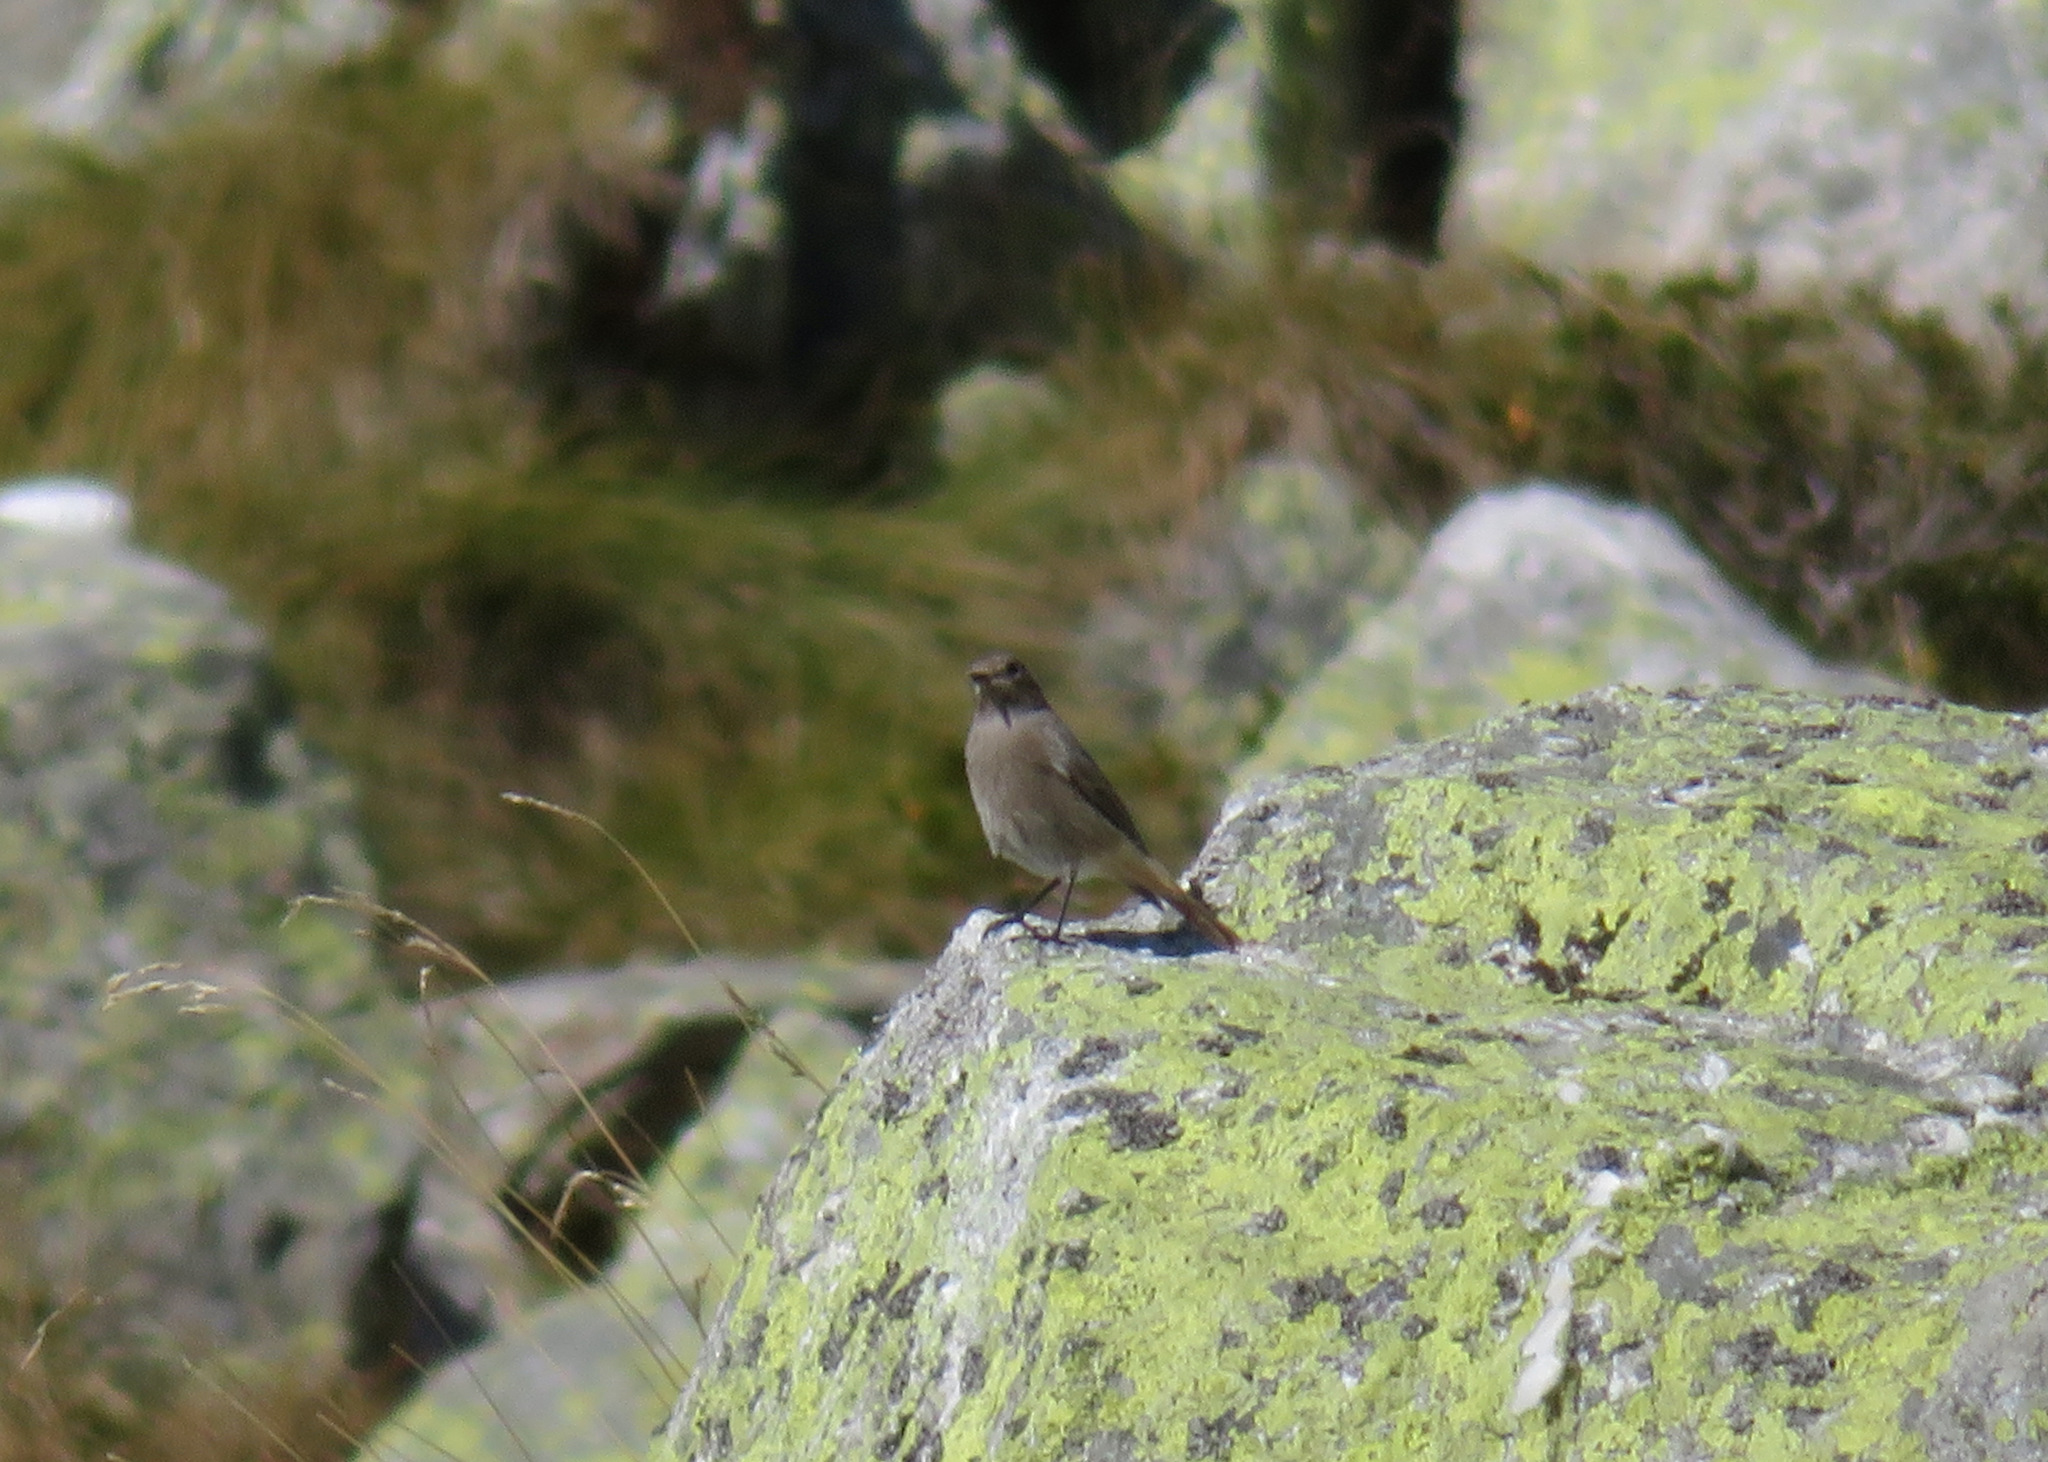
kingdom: Animalia
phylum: Chordata
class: Aves
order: Passeriformes
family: Muscicapidae
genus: Phoenicurus
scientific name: Phoenicurus ochruros
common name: Black redstart
